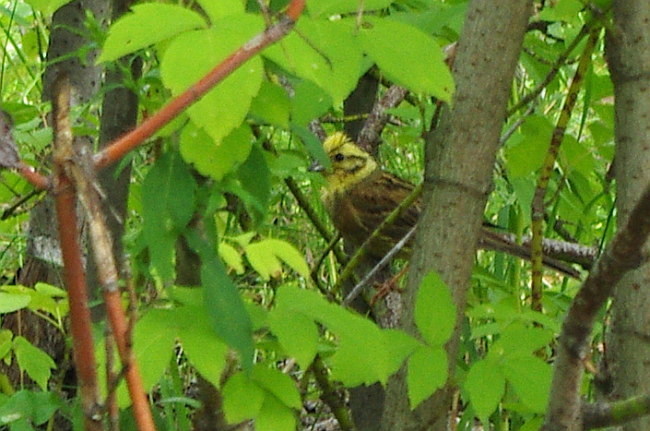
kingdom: Plantae
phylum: Tracheophyta
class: Magnoliopsida
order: Sapindales
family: Sapindaceae
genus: Acer
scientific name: Acer negundo
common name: Ashleaf maple
